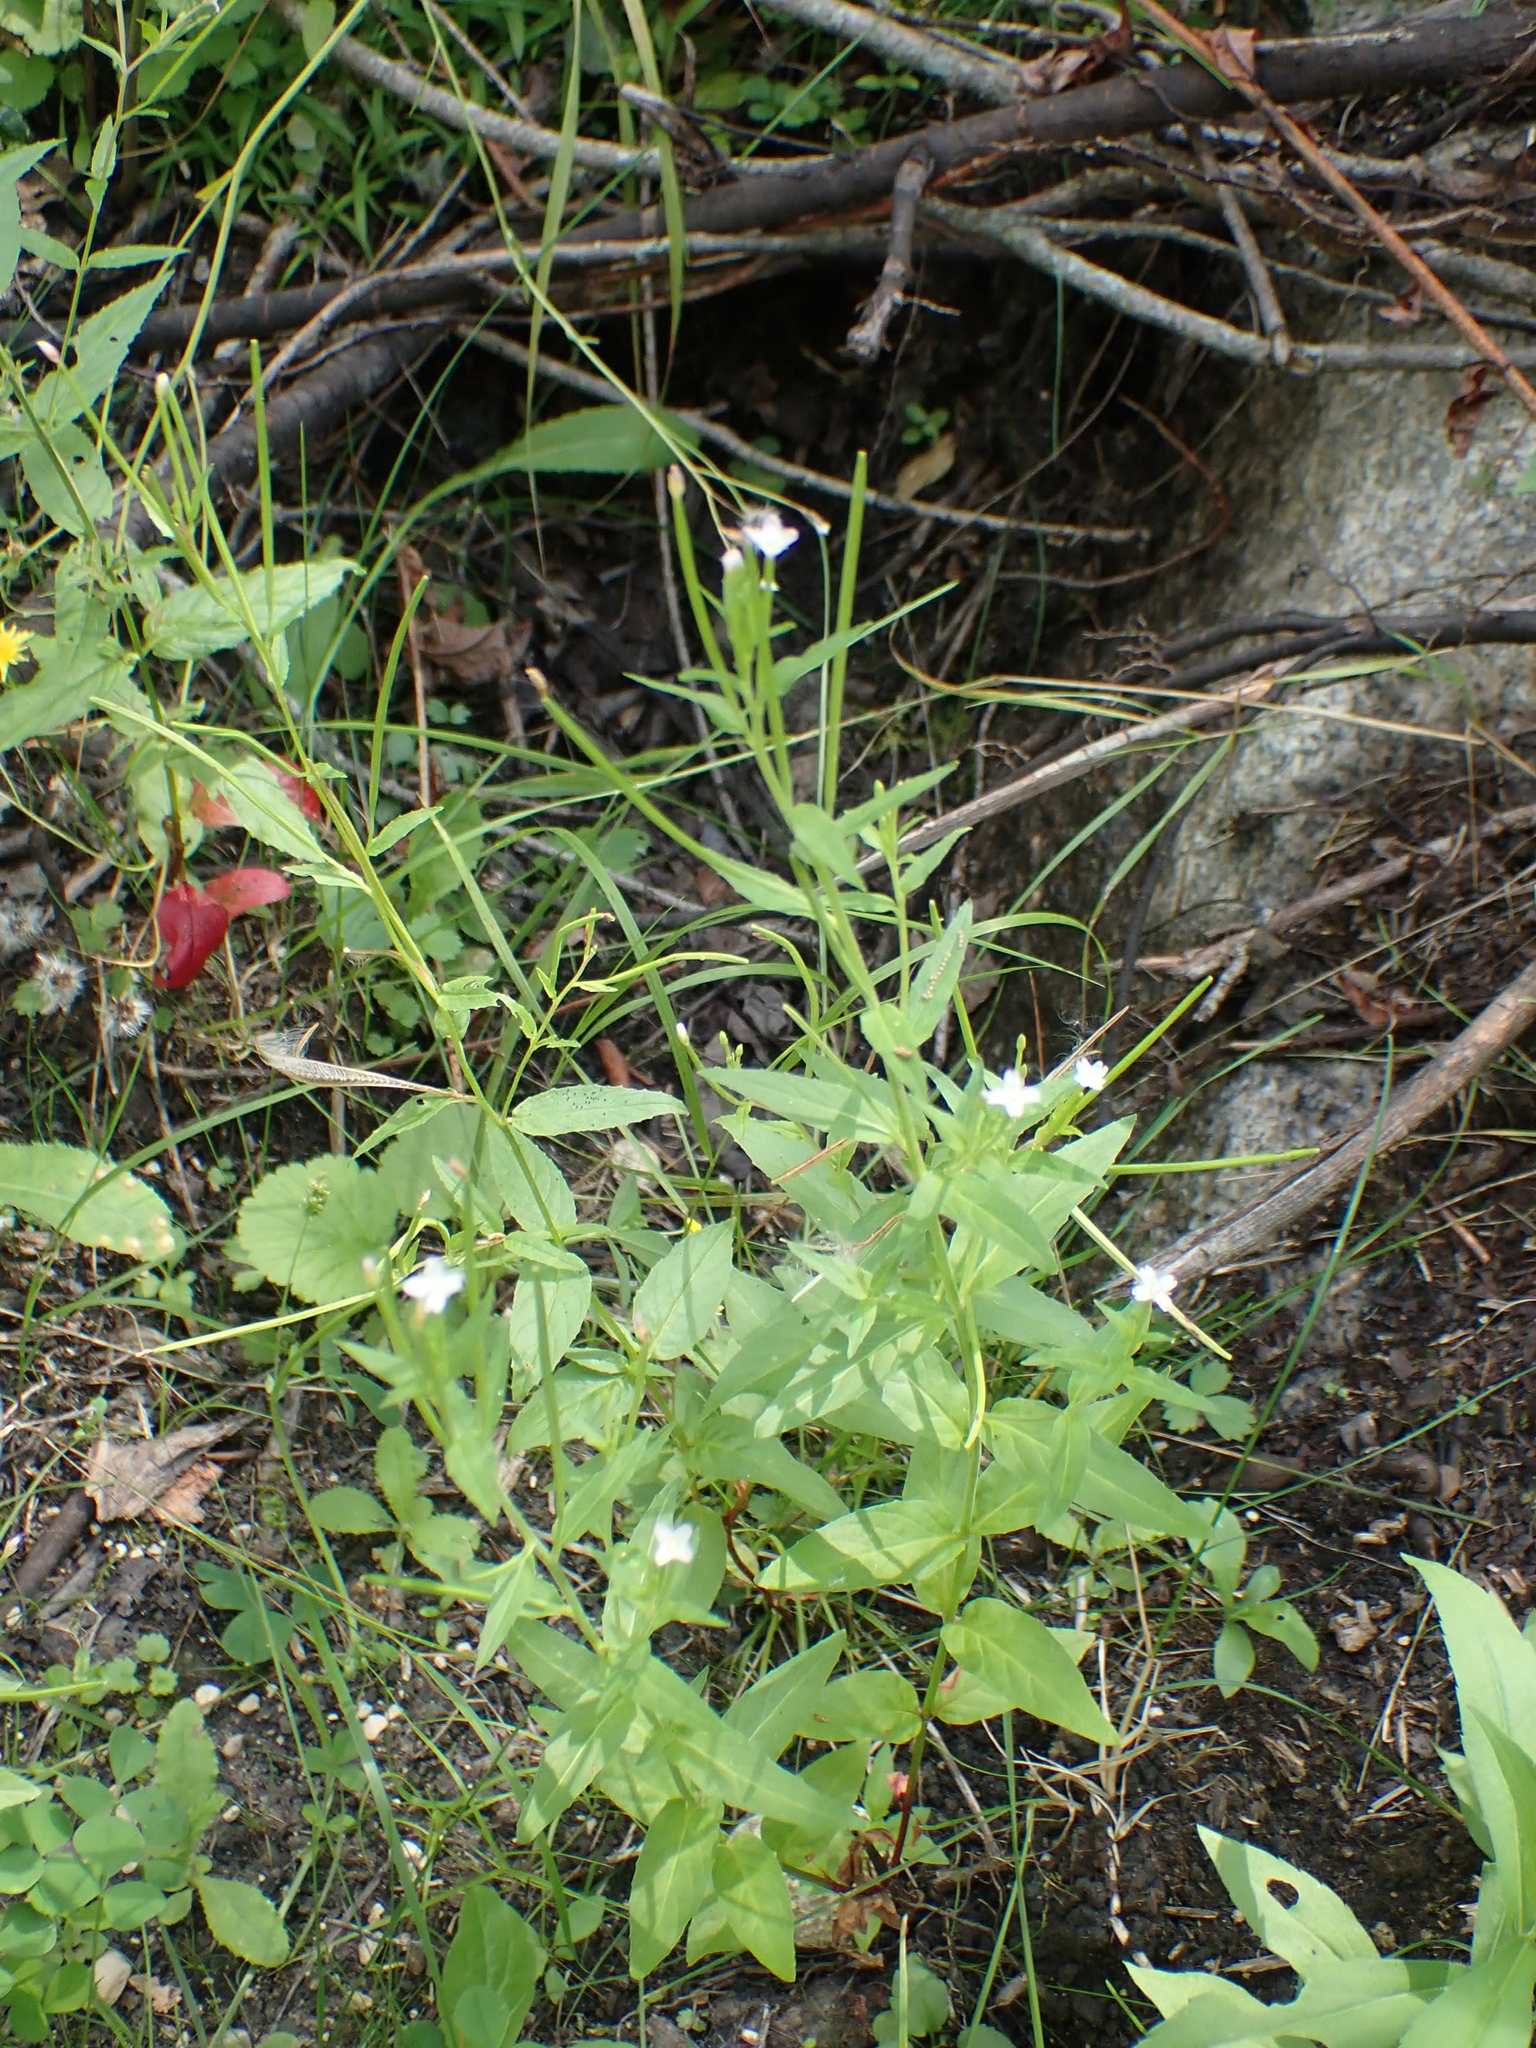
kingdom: Plantae
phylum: Tracheophyta
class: Magnoliopsida
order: Myrtales
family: Onagraceae
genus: Epilobium
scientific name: Epilobium ciliatum
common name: American willowherb
